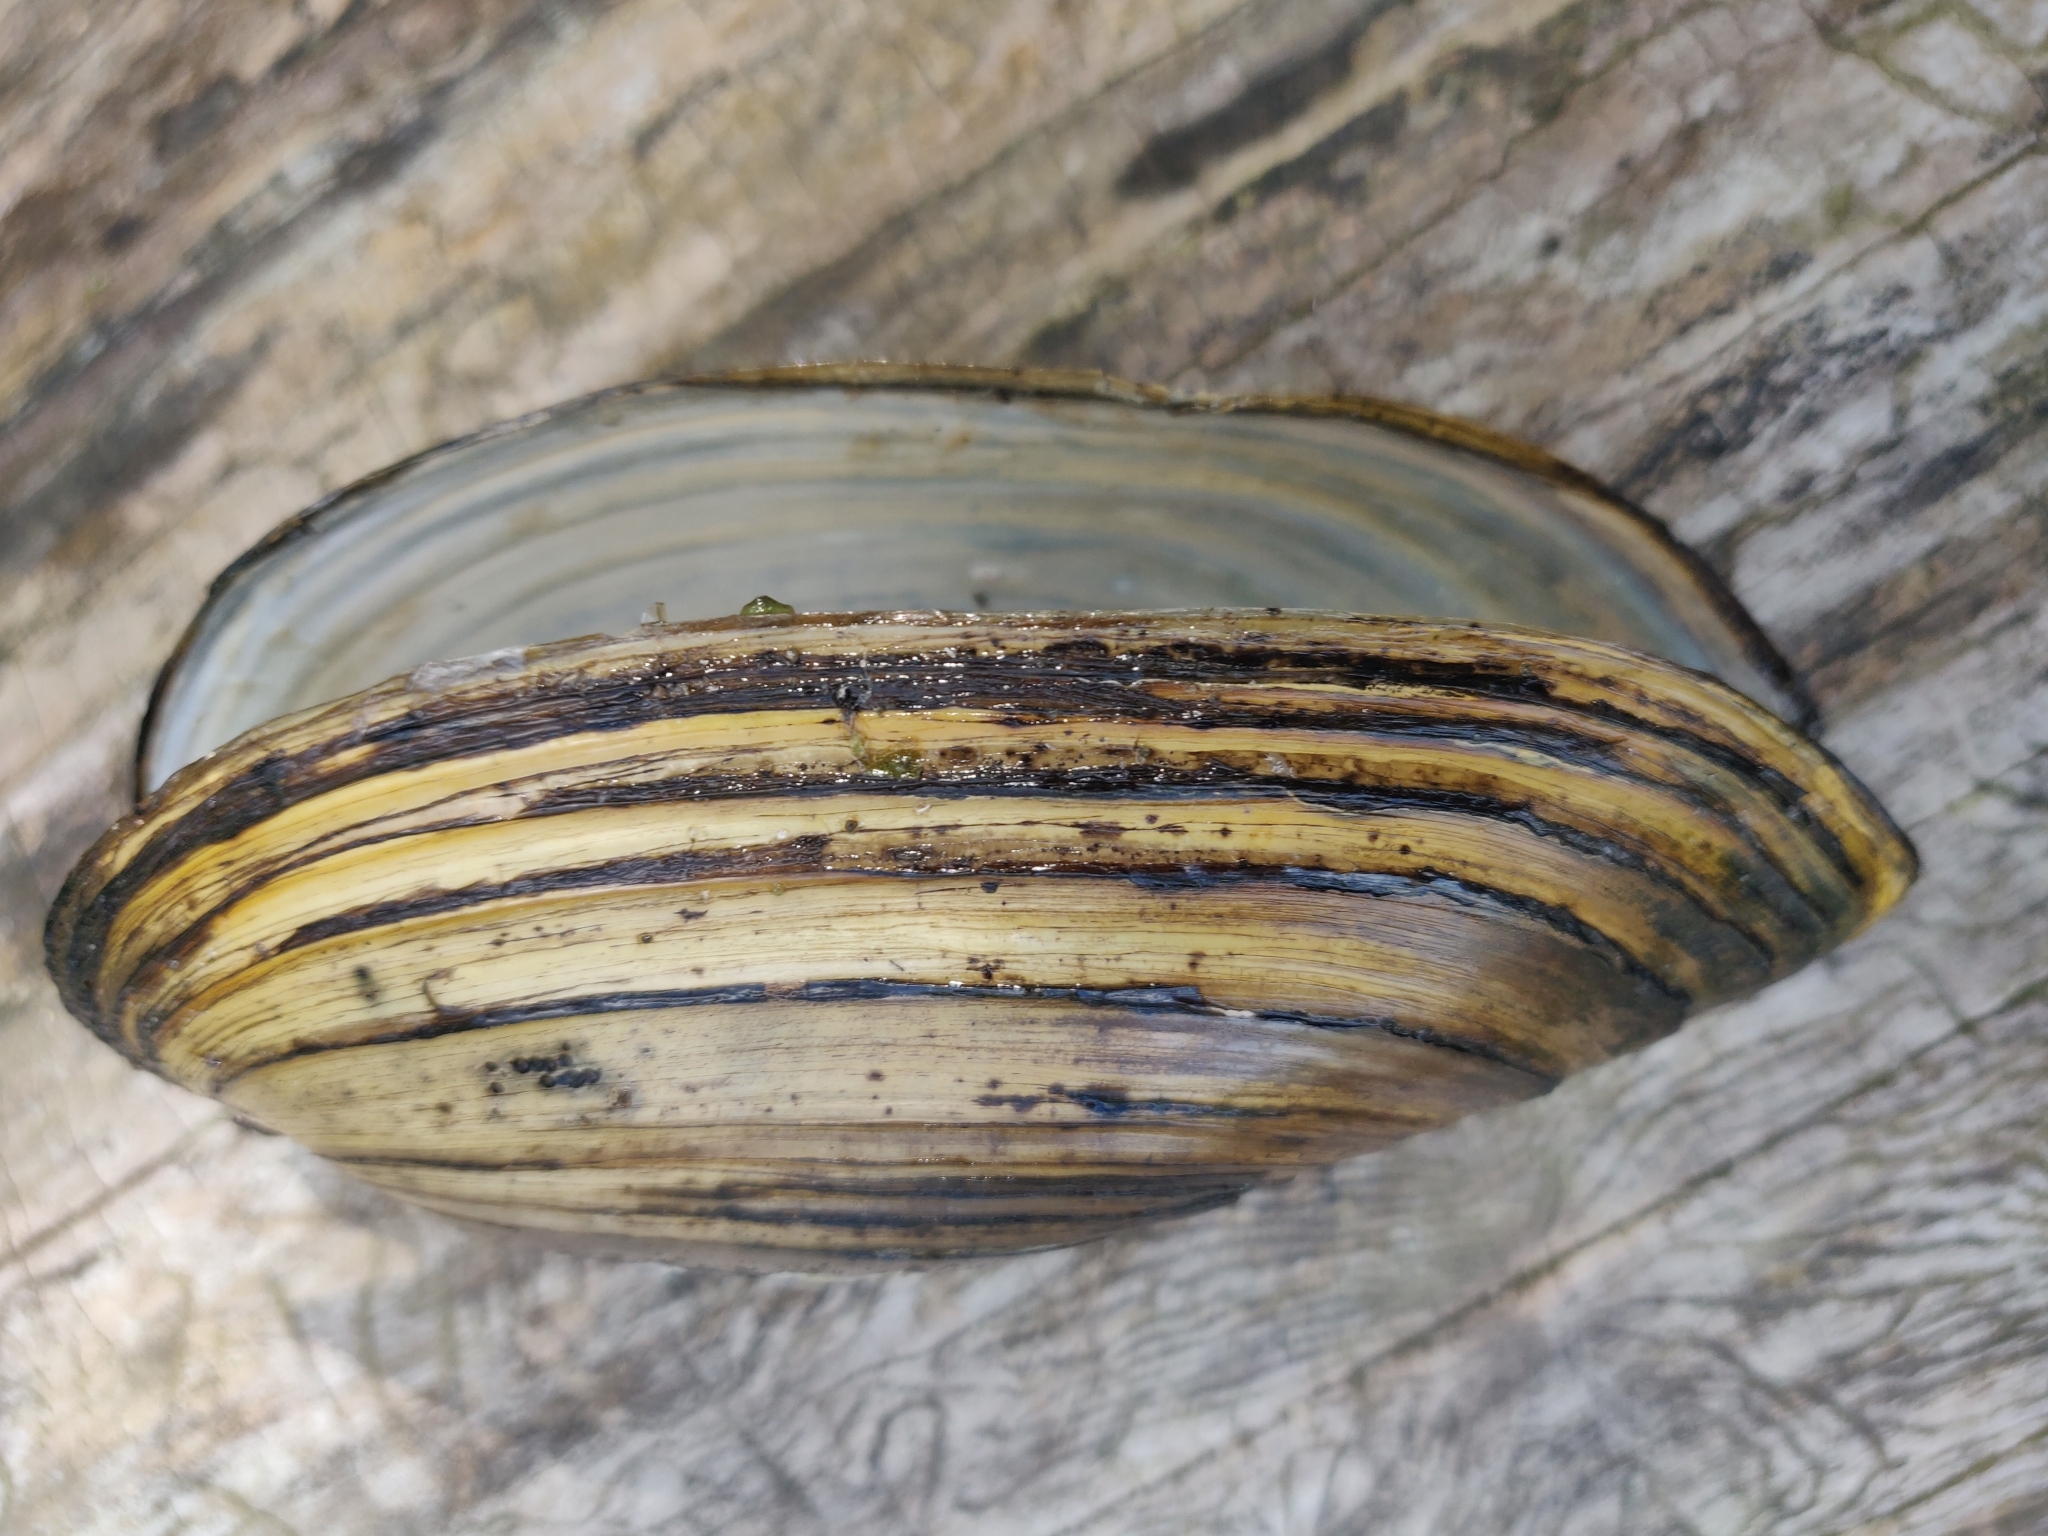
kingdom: Animalia
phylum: Mollusca
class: Bivalvia
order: Unionida
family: Unionidae
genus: Anodonta
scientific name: Anodonta cygnea
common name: Swan mussel
